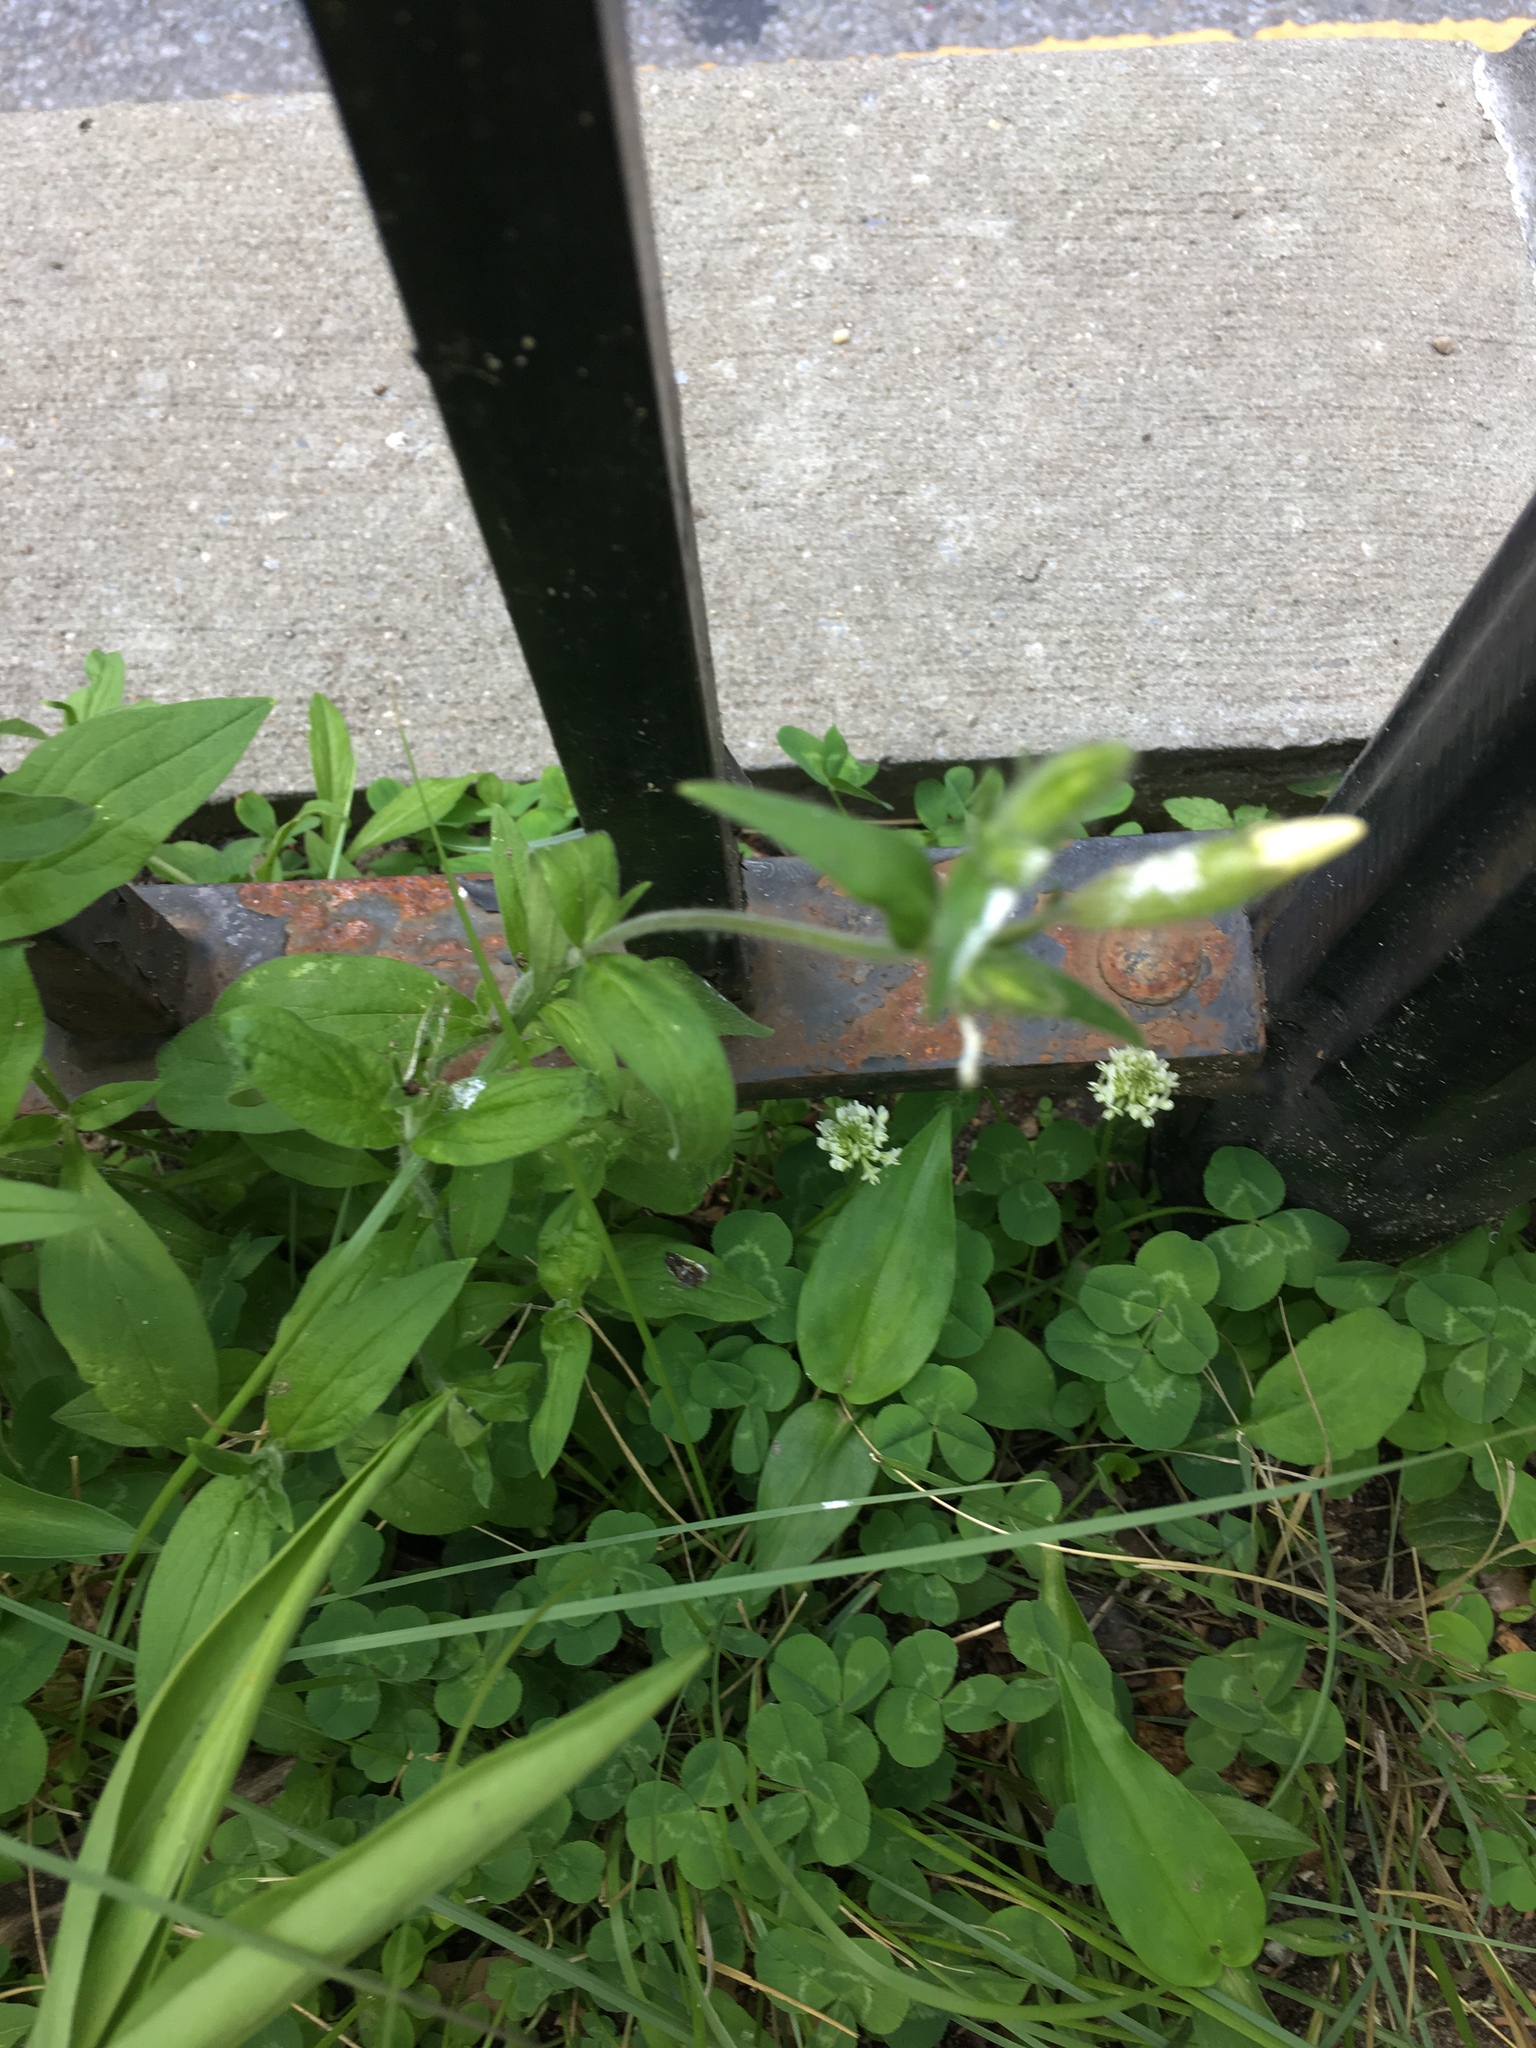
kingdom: Plantae
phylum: Tracheophyta
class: Magnoliopsida
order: Caryophyllales
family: Caryophyllaceae
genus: Silene
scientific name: Silene latifolia
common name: White campion
